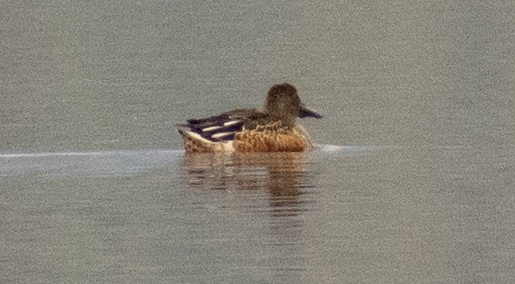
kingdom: Animalia
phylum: Chordata
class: Aves
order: Anseriformes
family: Anatidae
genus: Spatula
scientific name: Spatula clypeata
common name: Northern shoveler
